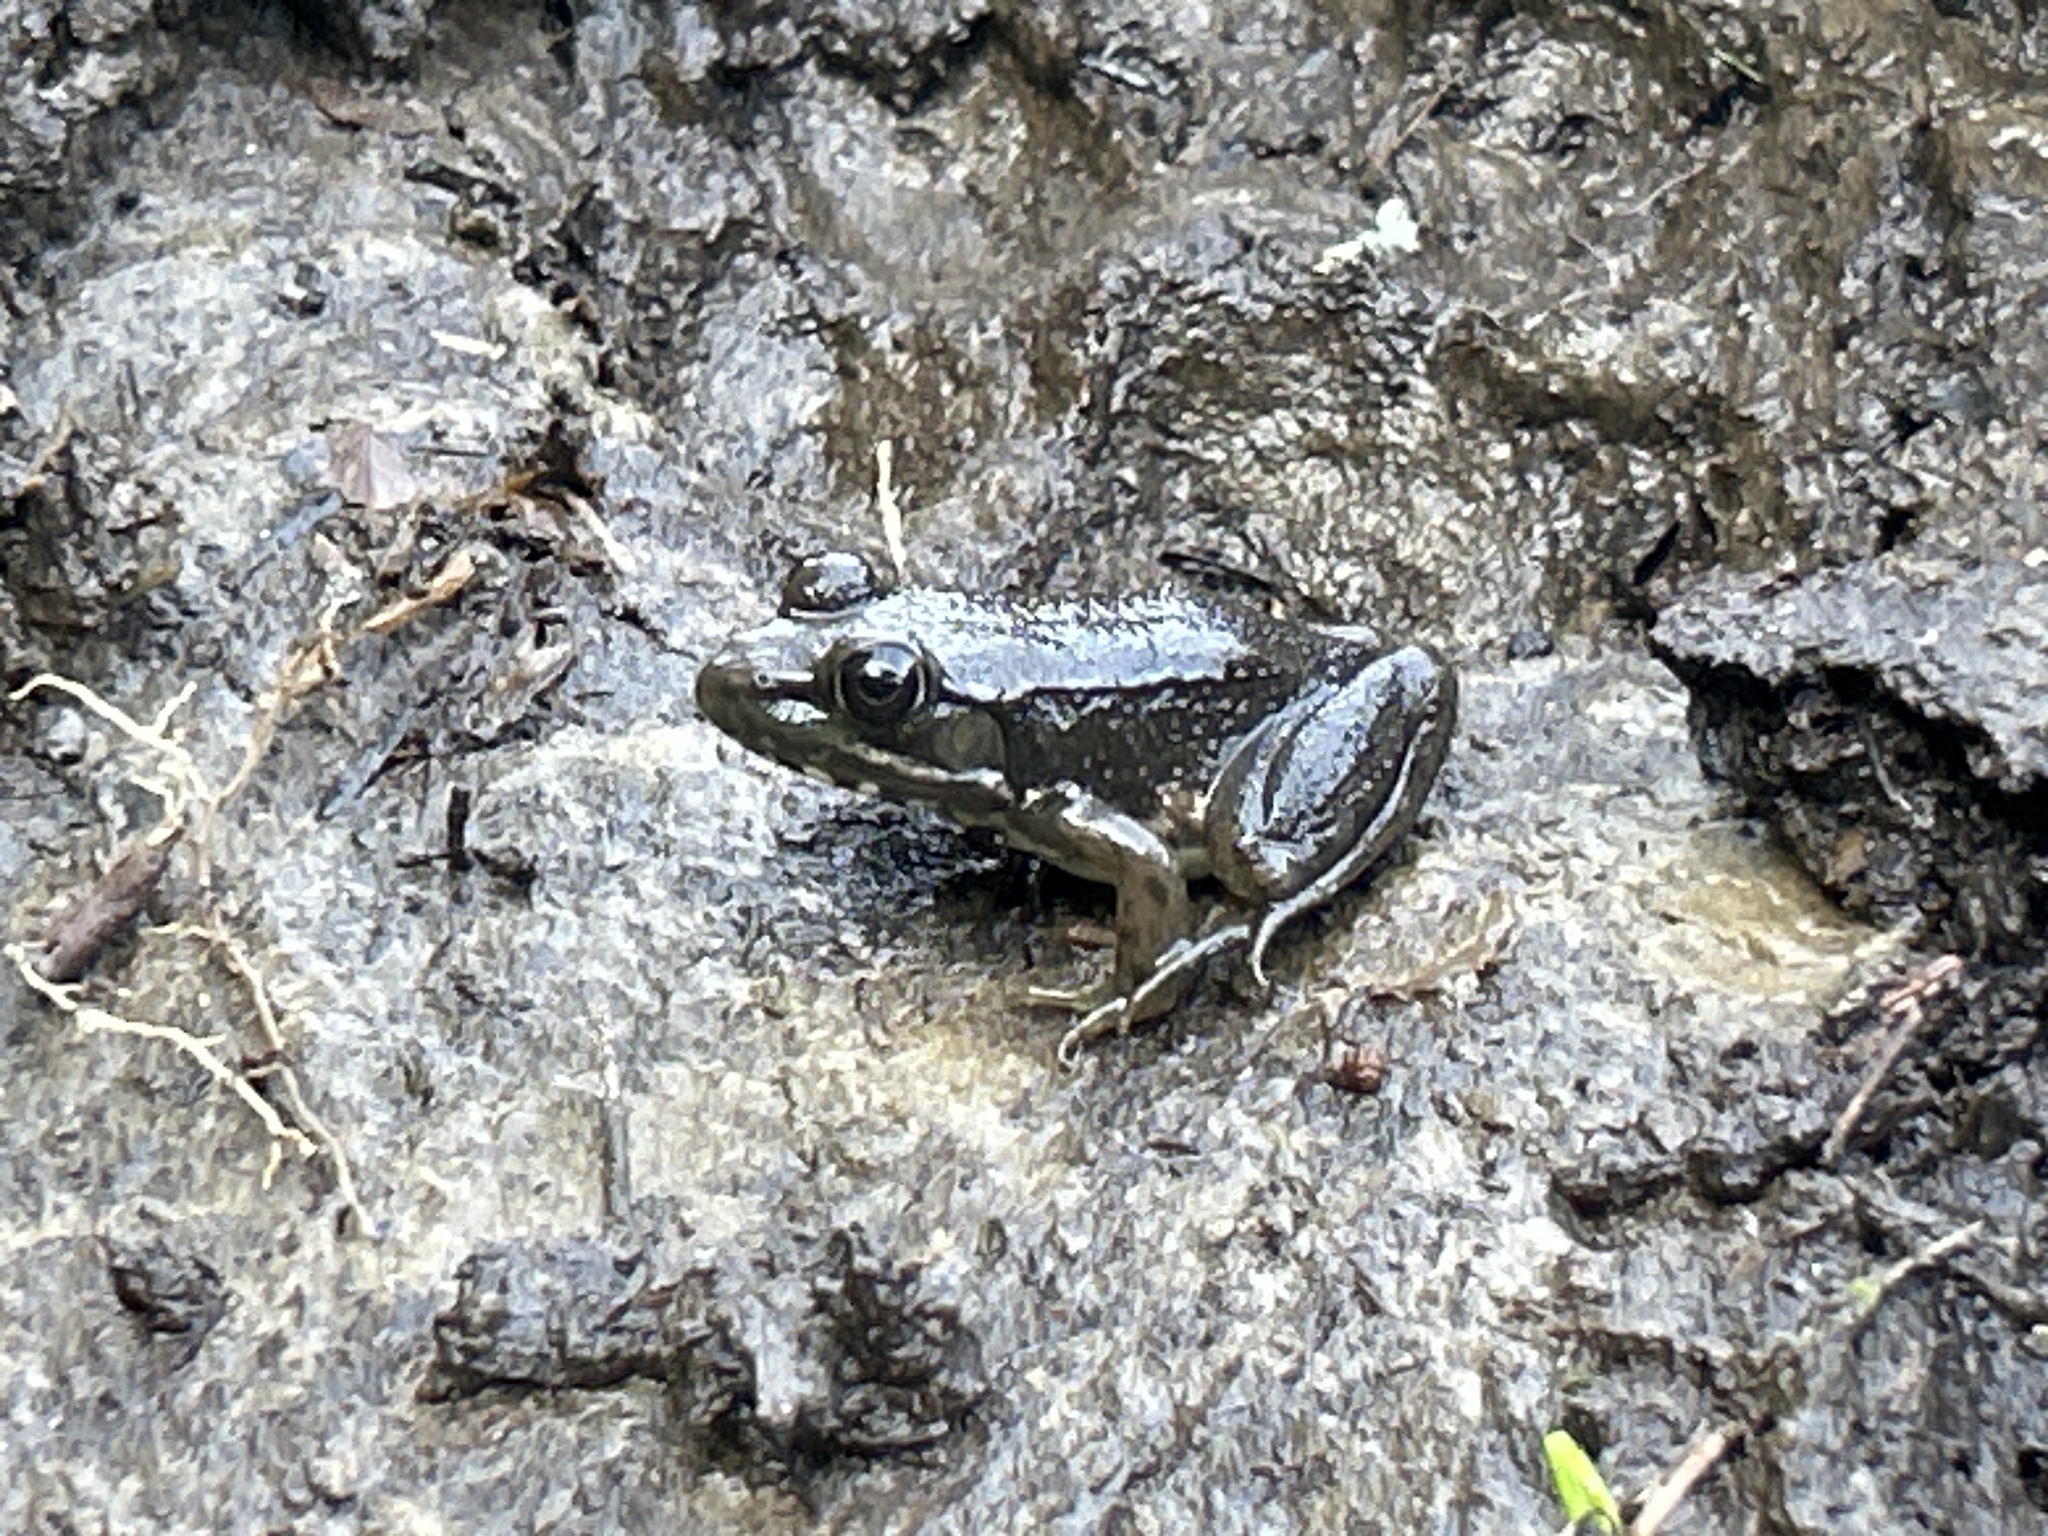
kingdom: Animalia
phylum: Chordata
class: Amphibia
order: Anura
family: Ranidae
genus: Lithobates
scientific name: Lithobates clamitans
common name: Green frog
